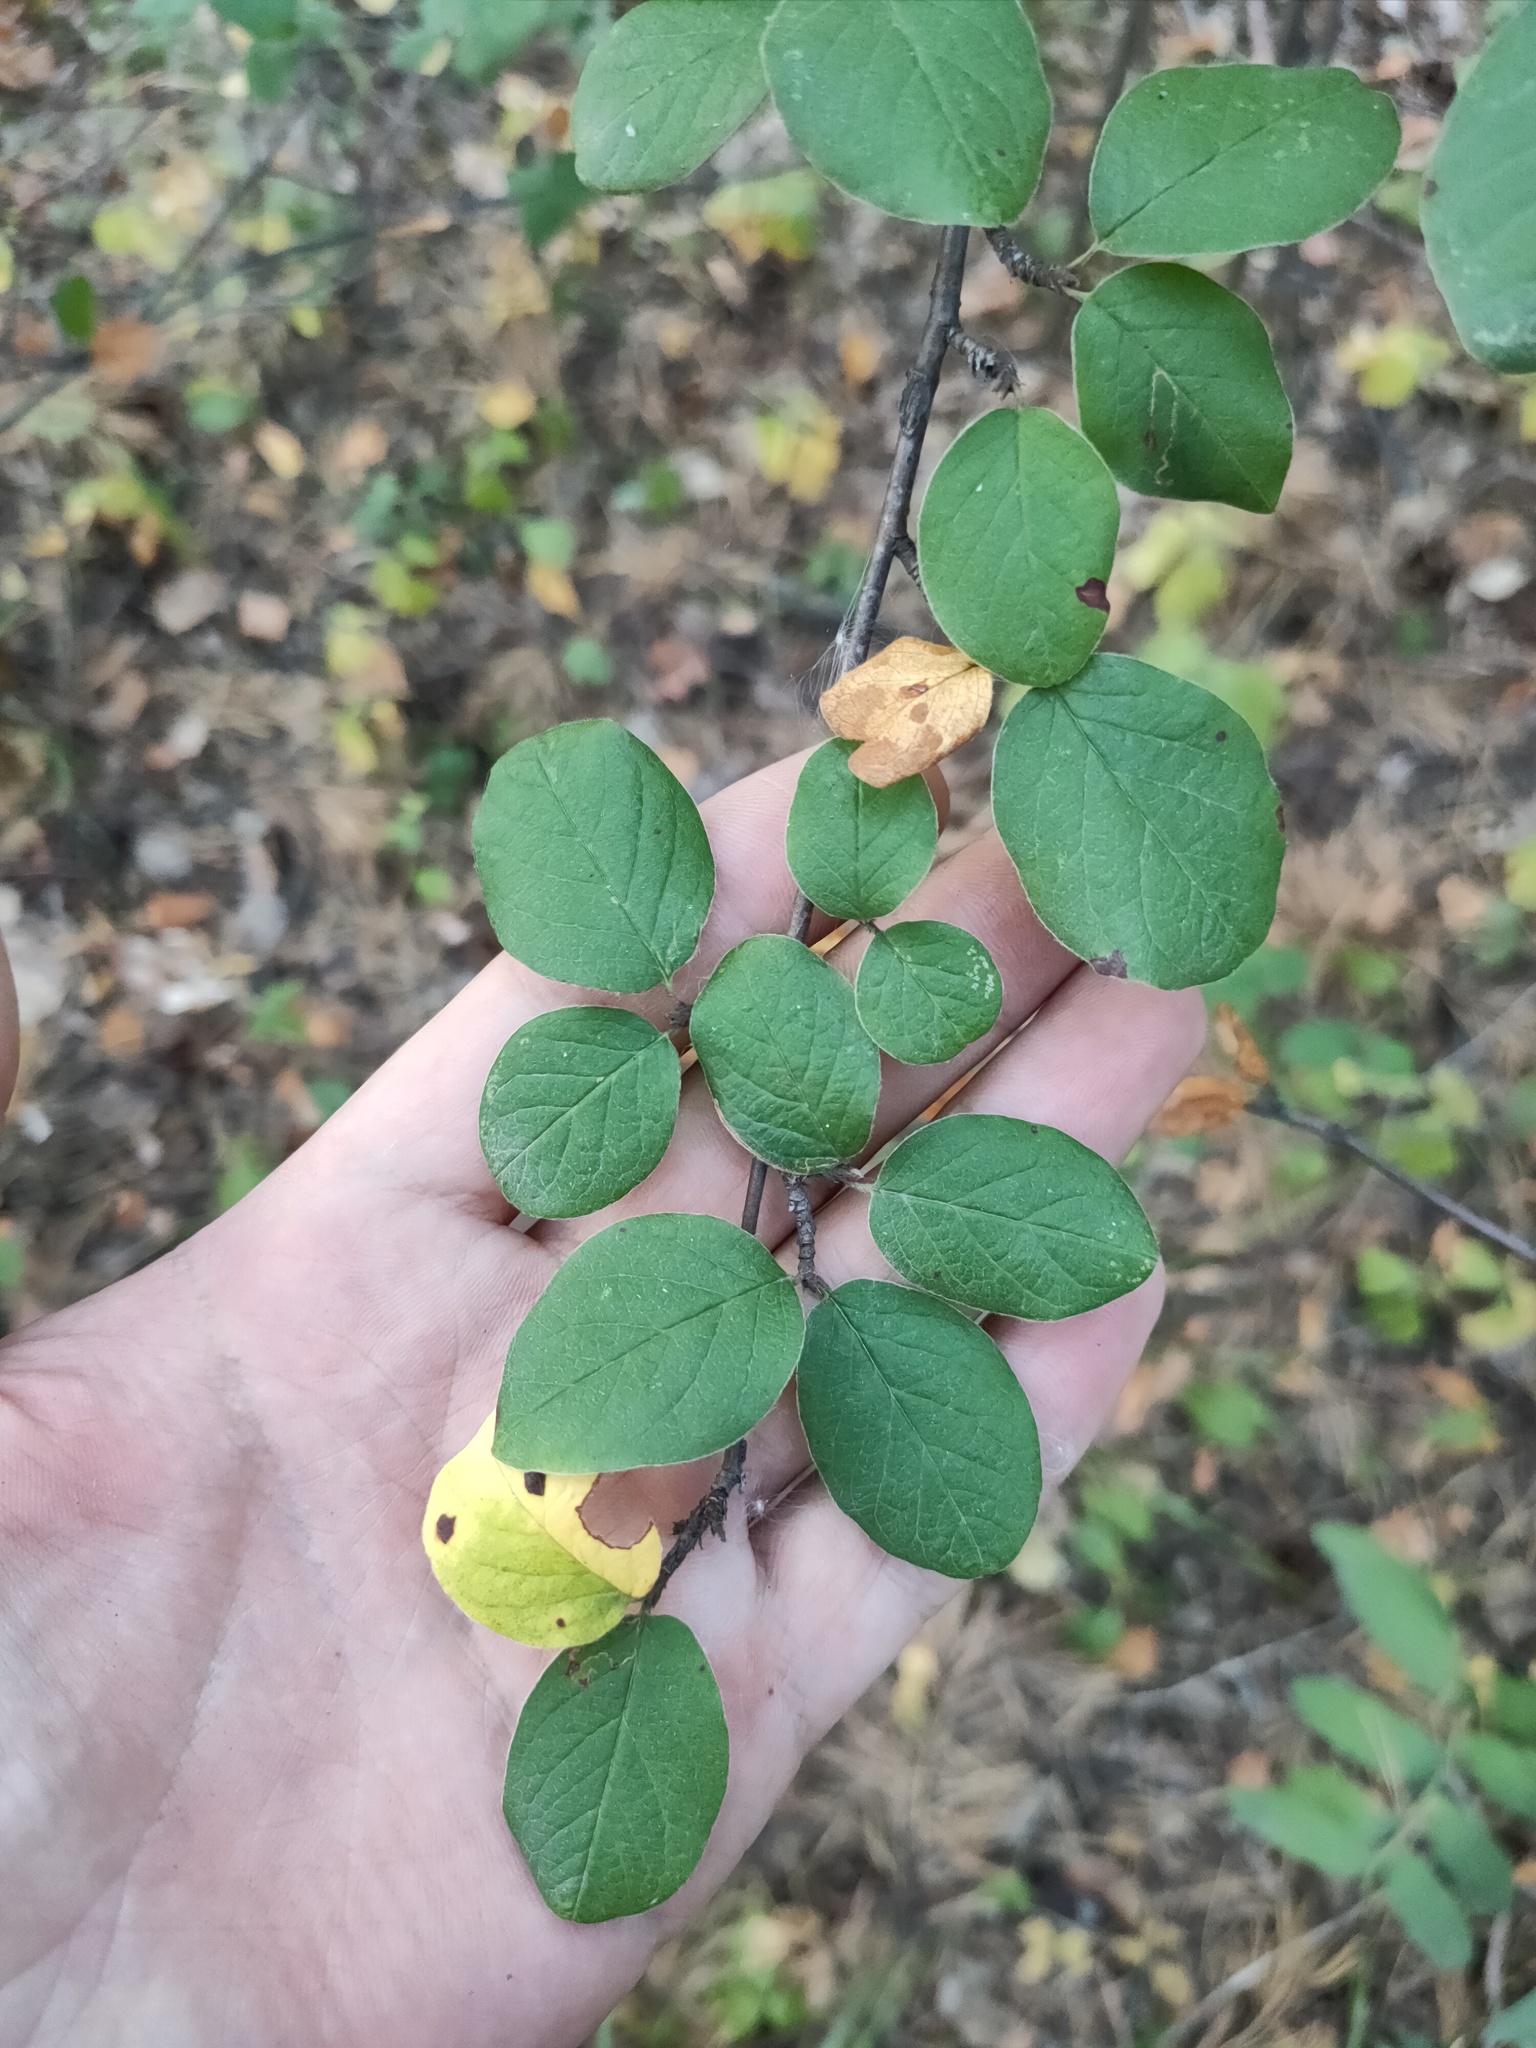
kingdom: Plantae
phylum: Tracheophyta
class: Magnoliopsida
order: Rosales
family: Rosaceae
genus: Cotoneaster
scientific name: Cotoneaster melanocarpus
